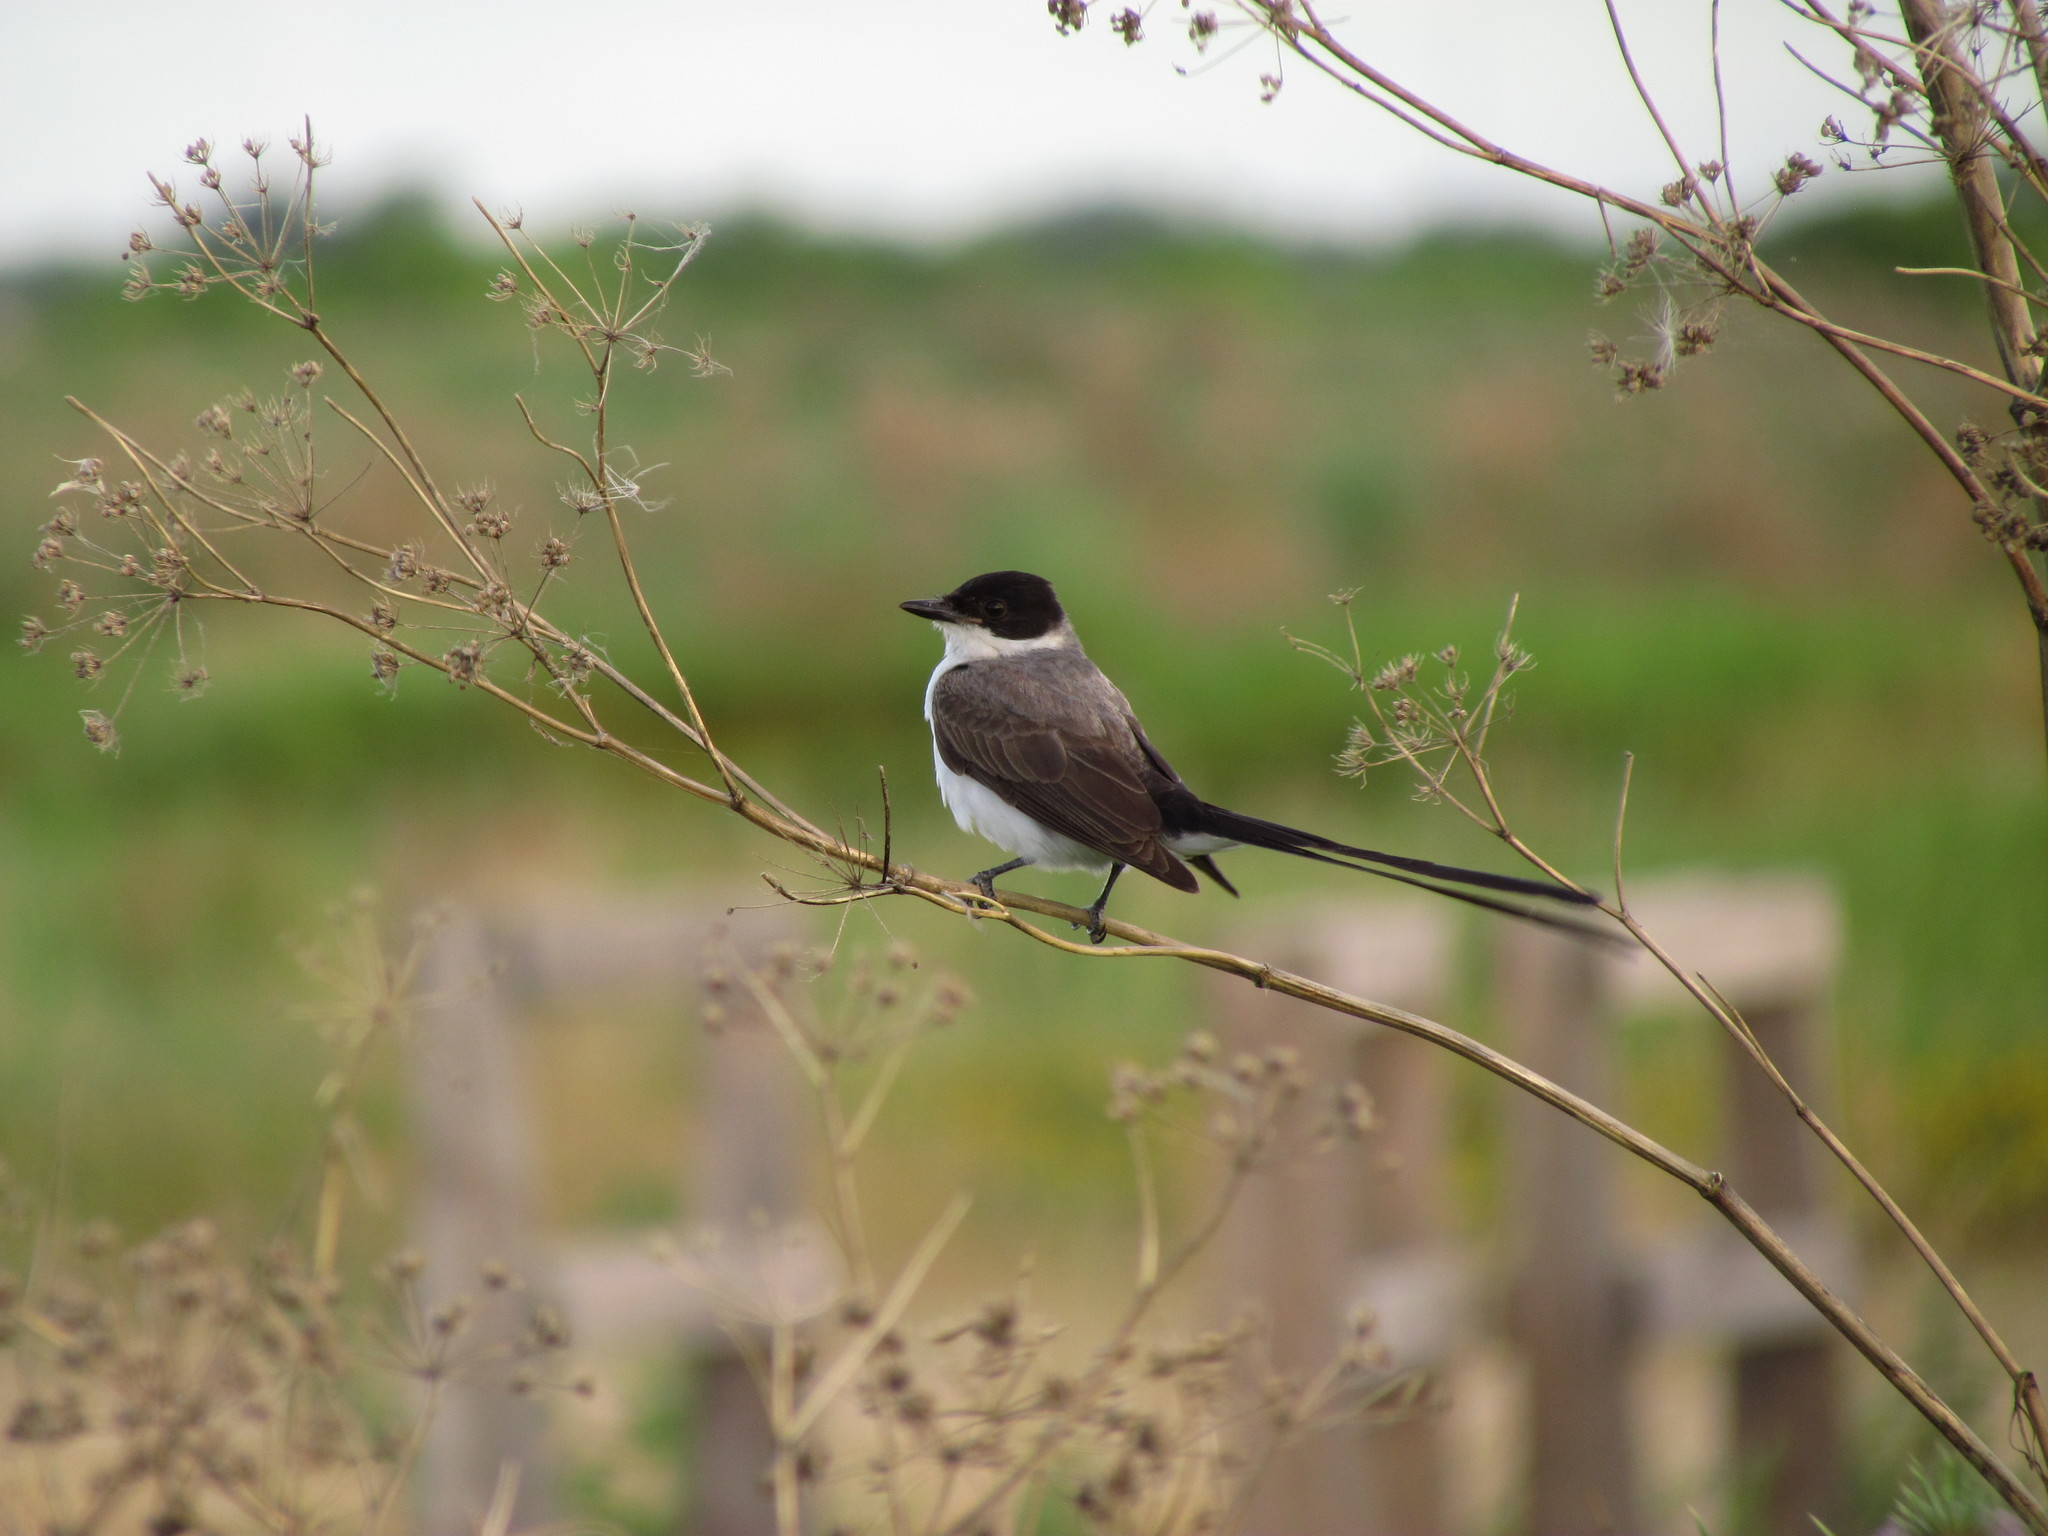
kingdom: Animalia
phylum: Chordata
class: Aves
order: Passeriformes
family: Tyrannidae
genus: Tyrannus
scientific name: Tyrannus savana
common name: Fork-tailed flycatcher
